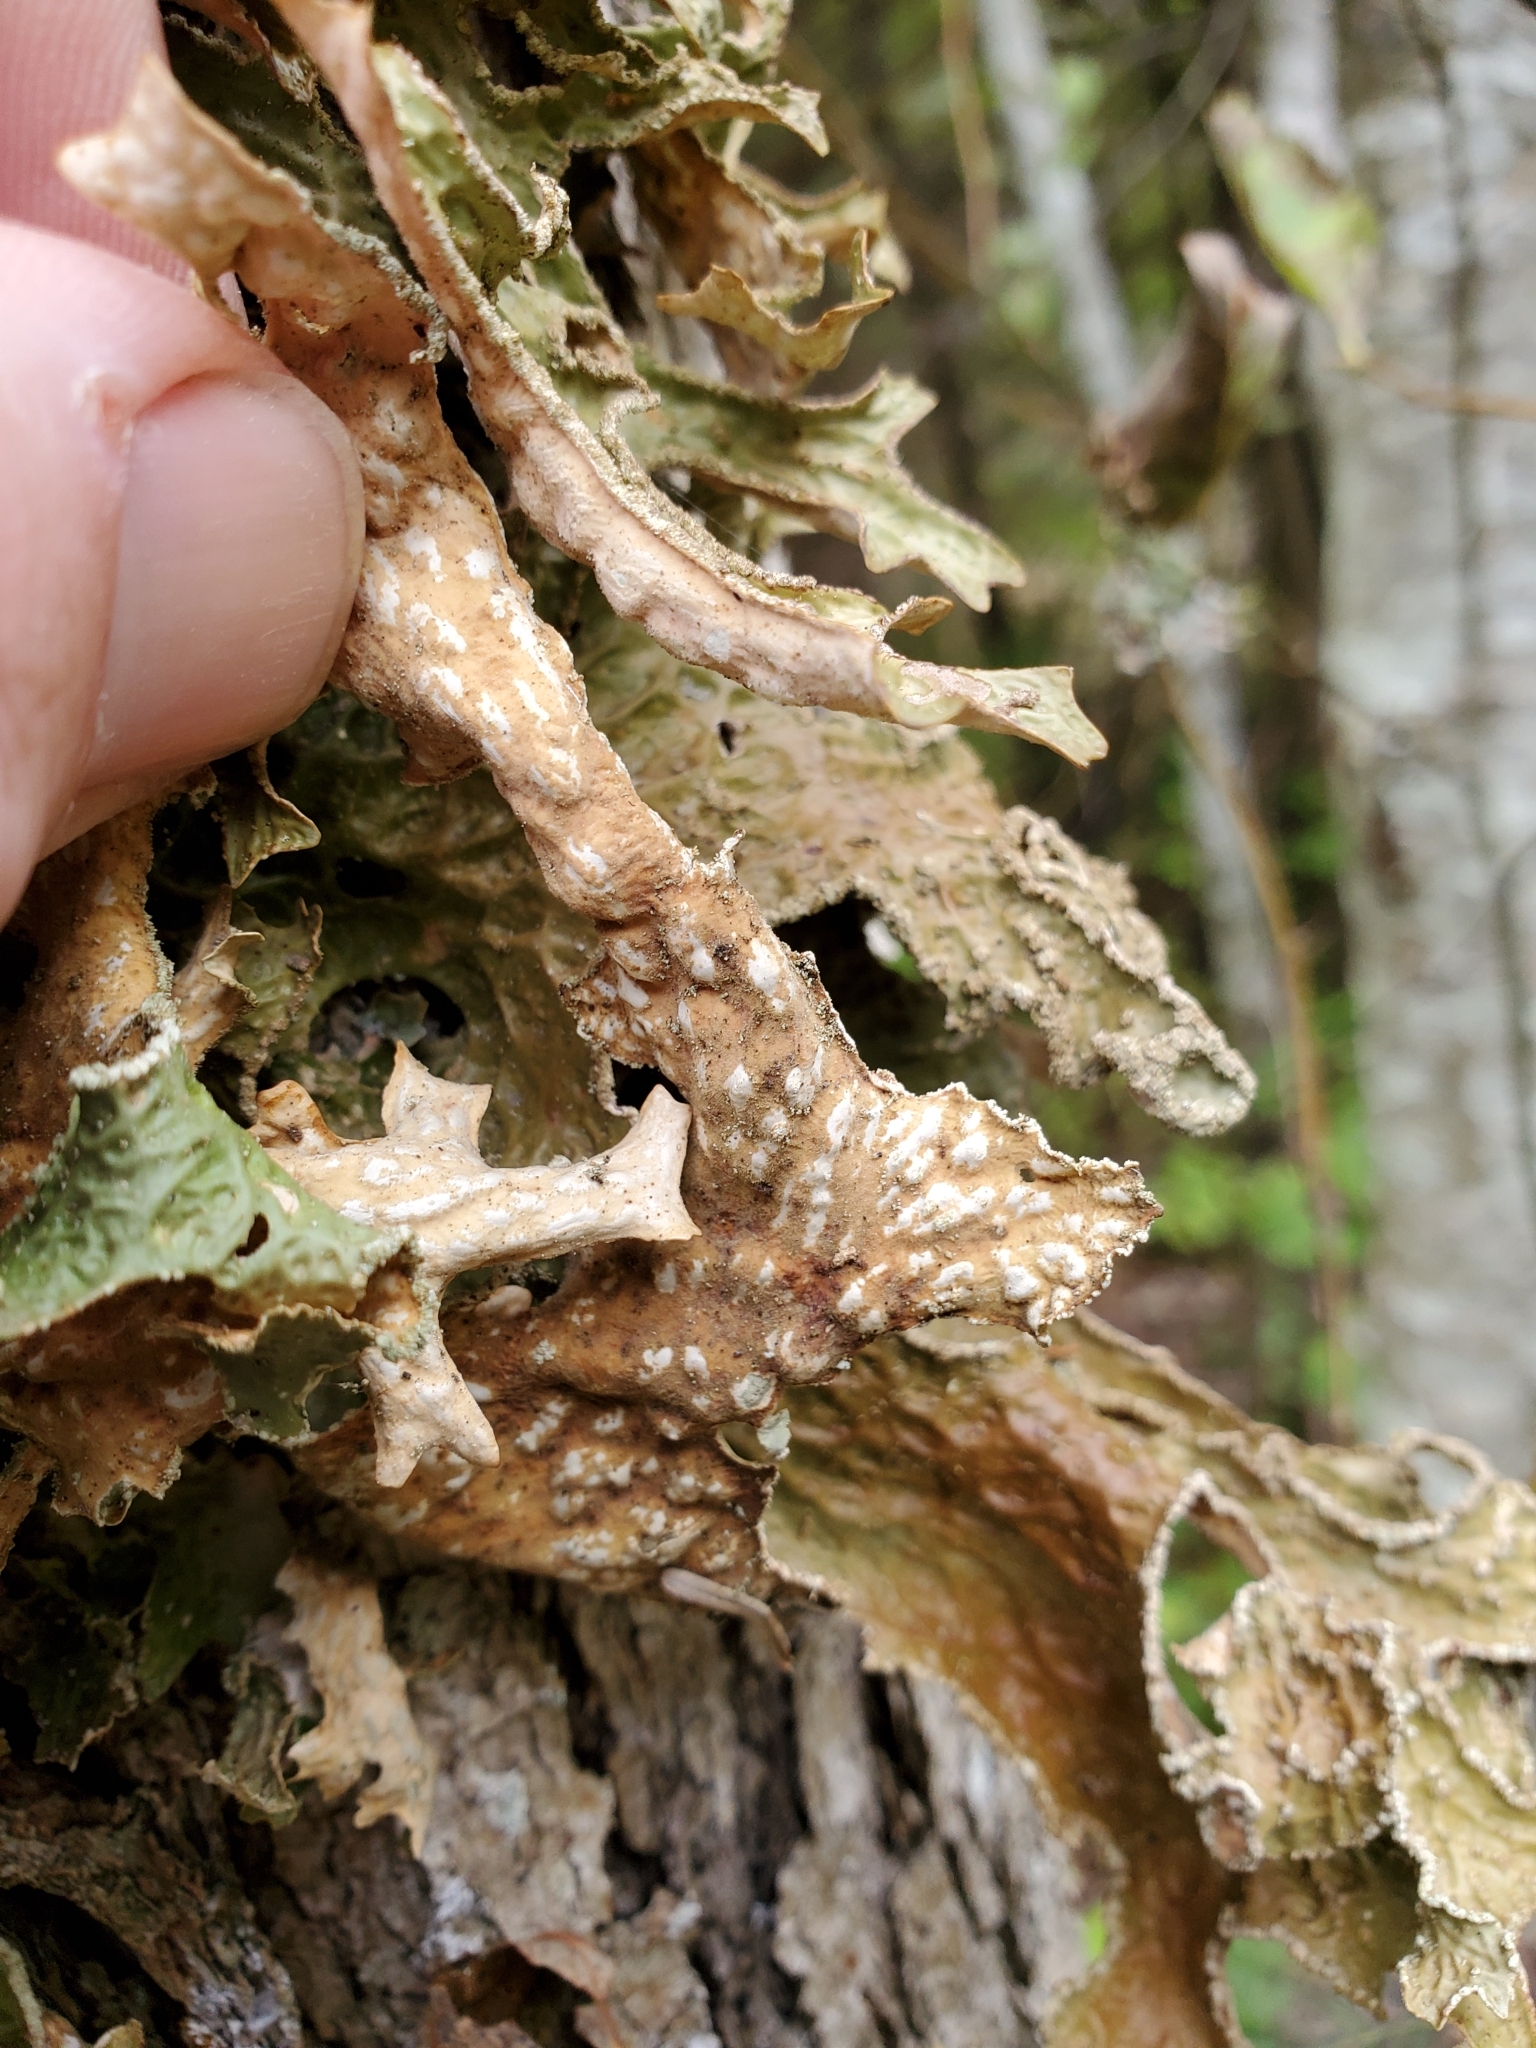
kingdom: Fungi
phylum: Ascomycota
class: Lecanoromycetes
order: Peltigerales
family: Lobariaceae
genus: Lobaria
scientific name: Lobaria pulmonaria
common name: Lungwort
